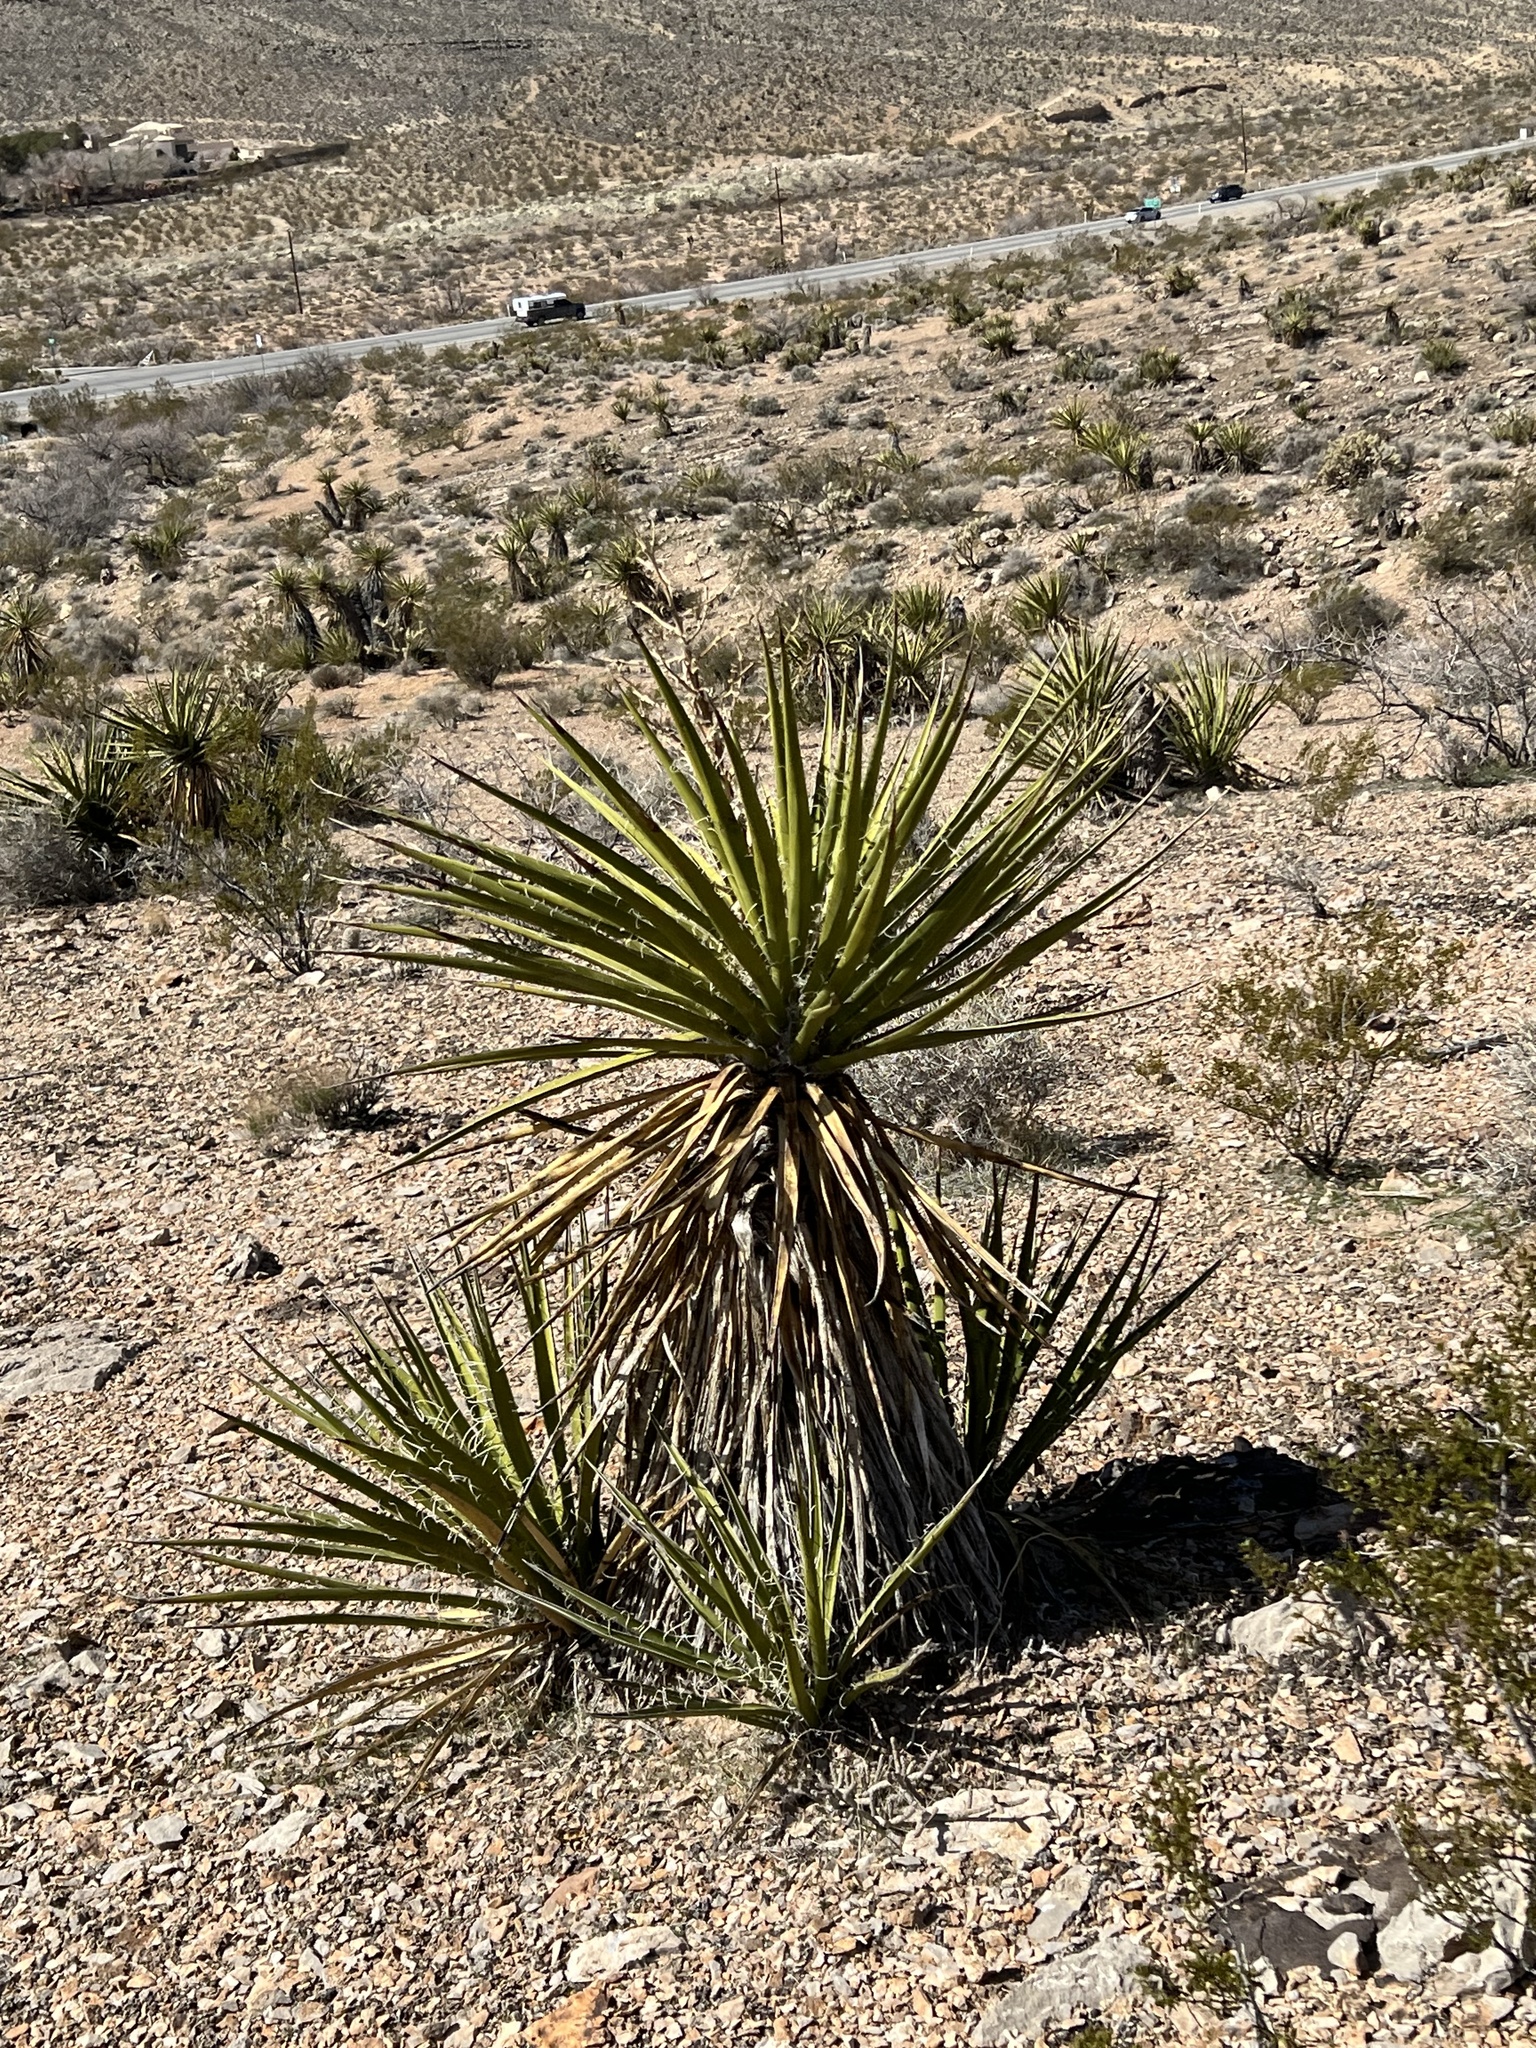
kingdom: Plantae
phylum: Tracheophyta
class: Liliopsida
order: Asparagales
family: Asparagaceae
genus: Yucca
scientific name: Yucca schidigera
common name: Mojave yucca
